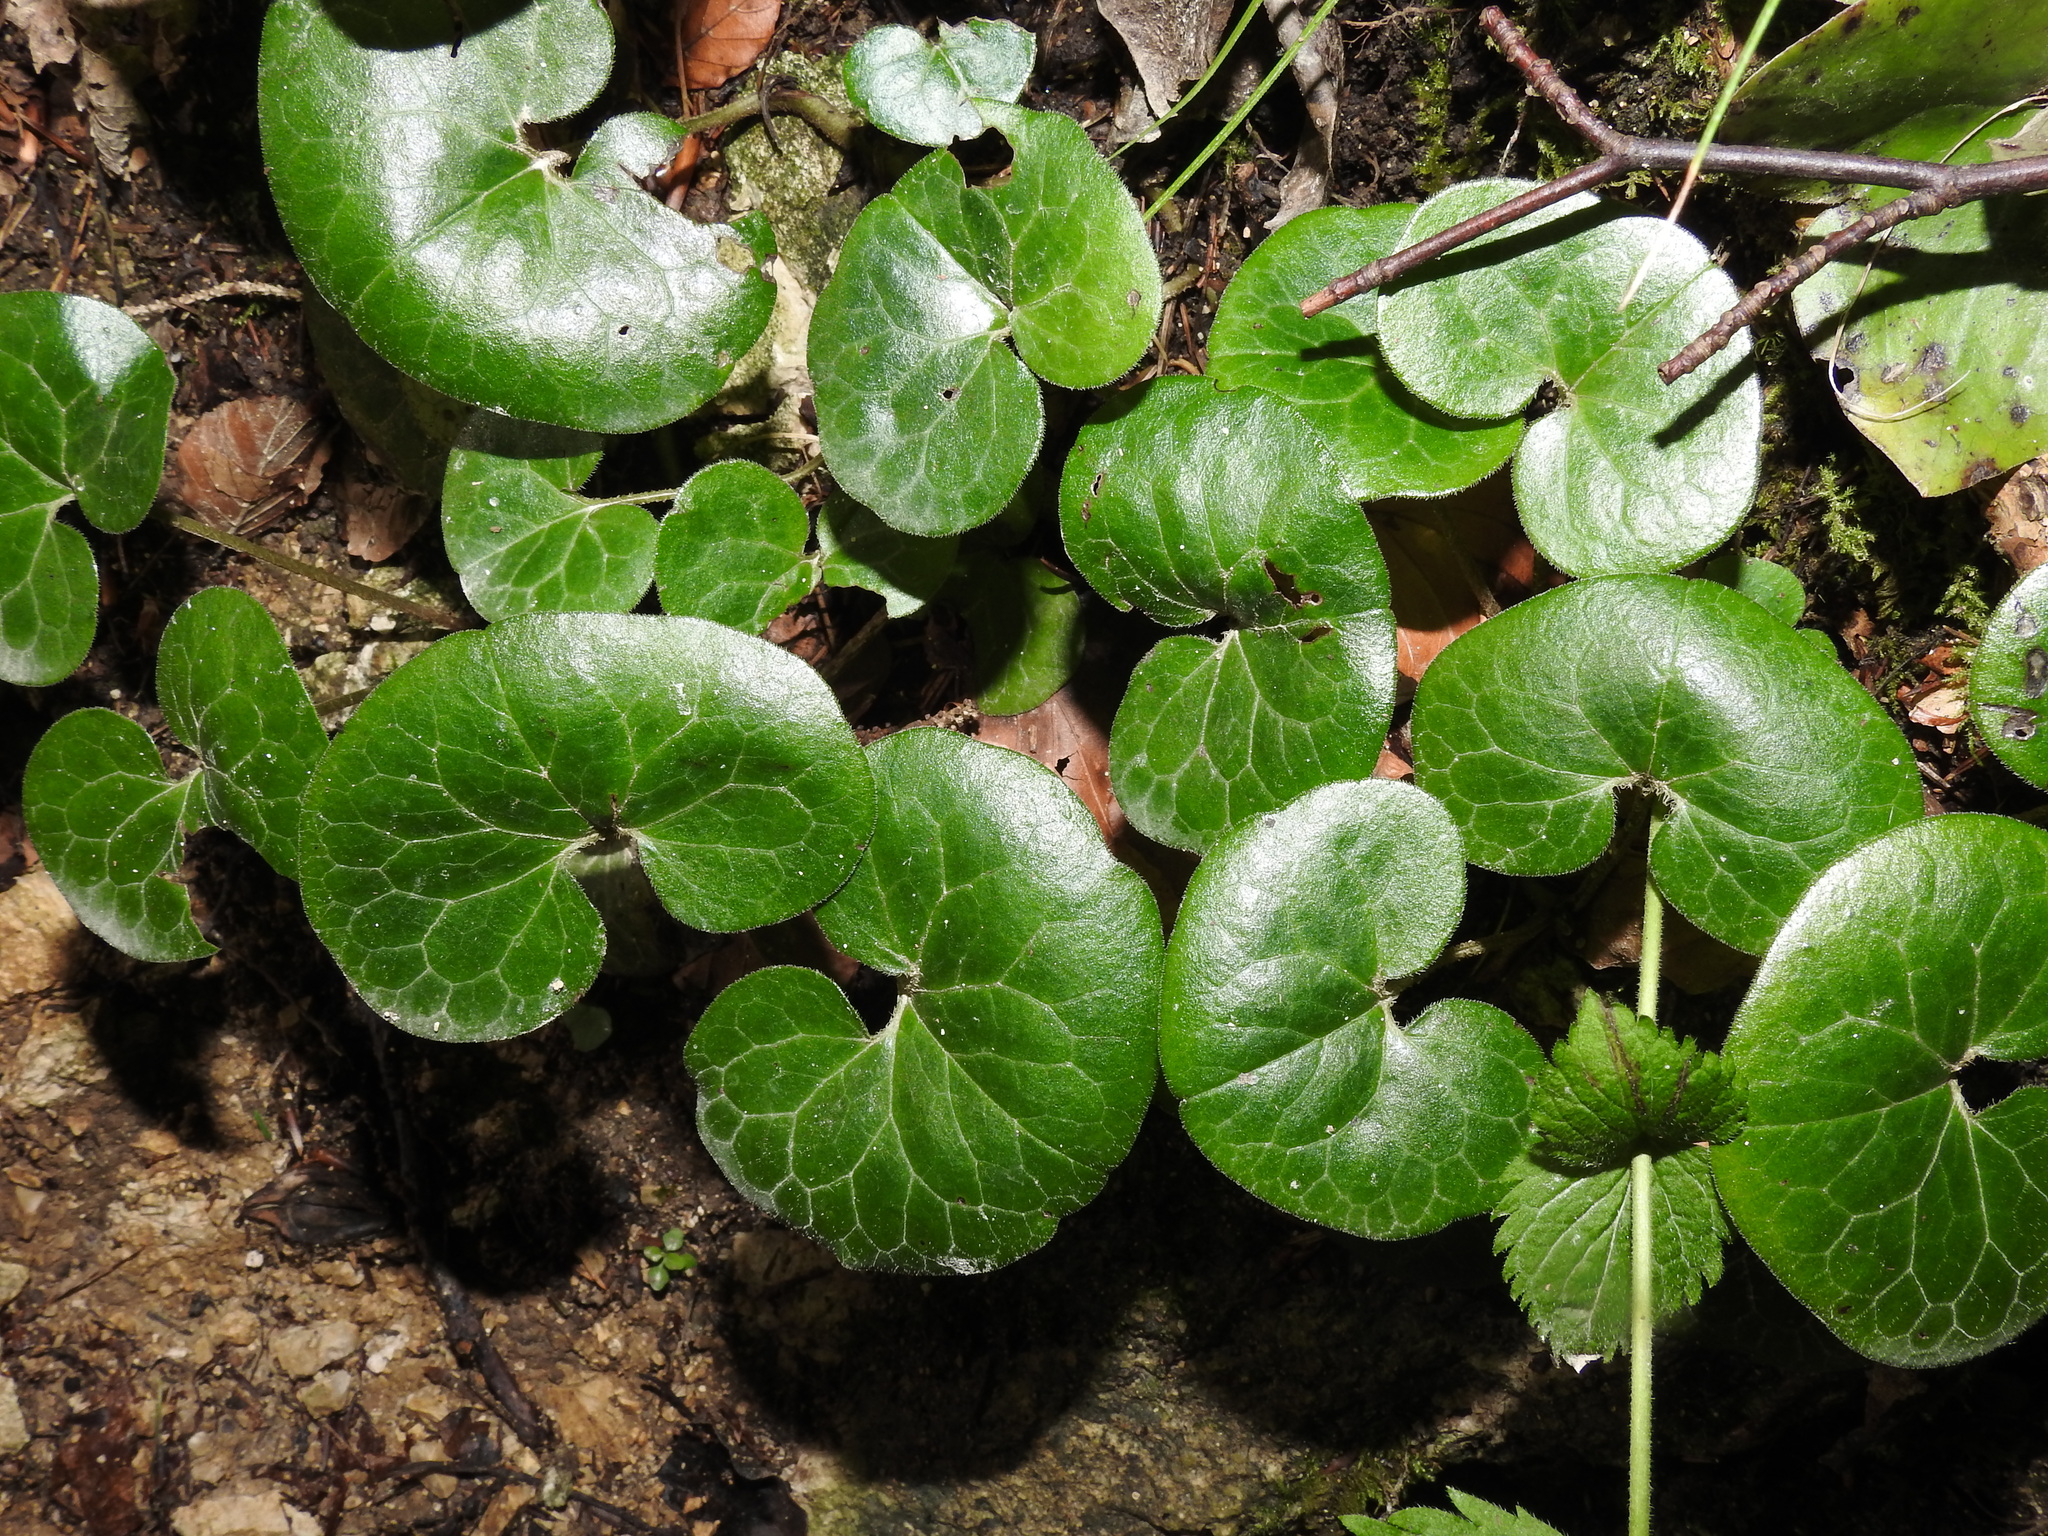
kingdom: Plantae
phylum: Tracheophyta
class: Magnoliopsida
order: Piperales
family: Aristolochiaceae
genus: Asarum
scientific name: Asarum europaeum
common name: Asarabacca
